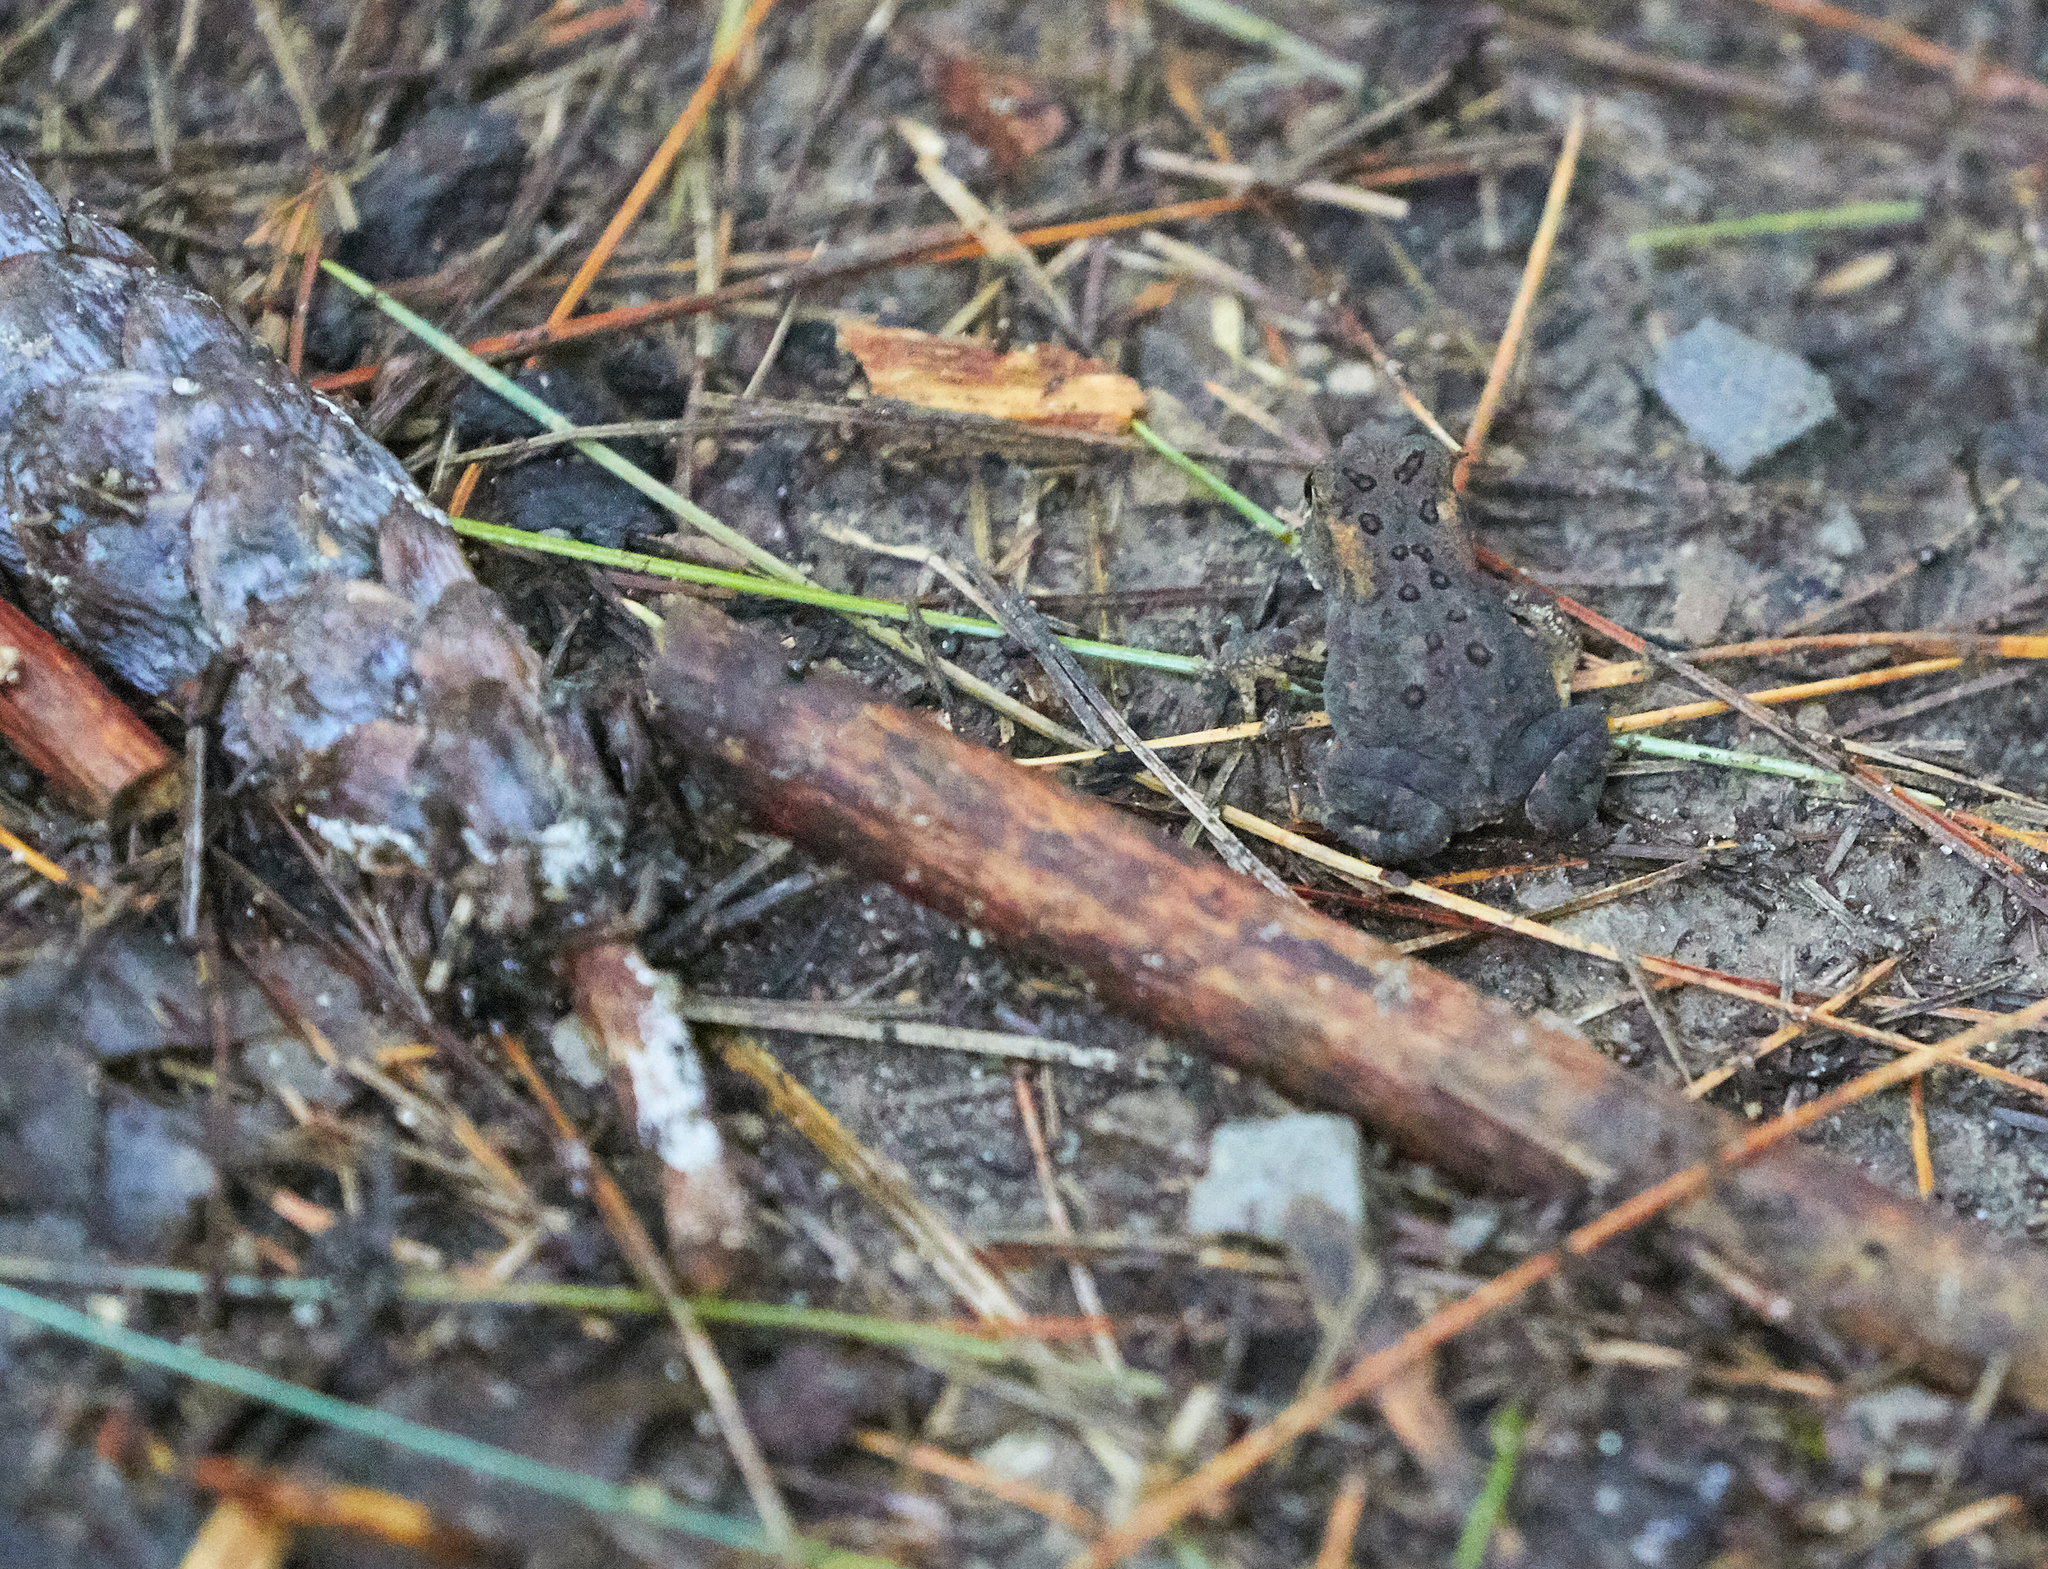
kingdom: Animalia
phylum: Chordata
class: Amphibia
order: Anura
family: Bufonidae
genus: Anaxyrus
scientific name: Anaxyrus americanus
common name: American toad
